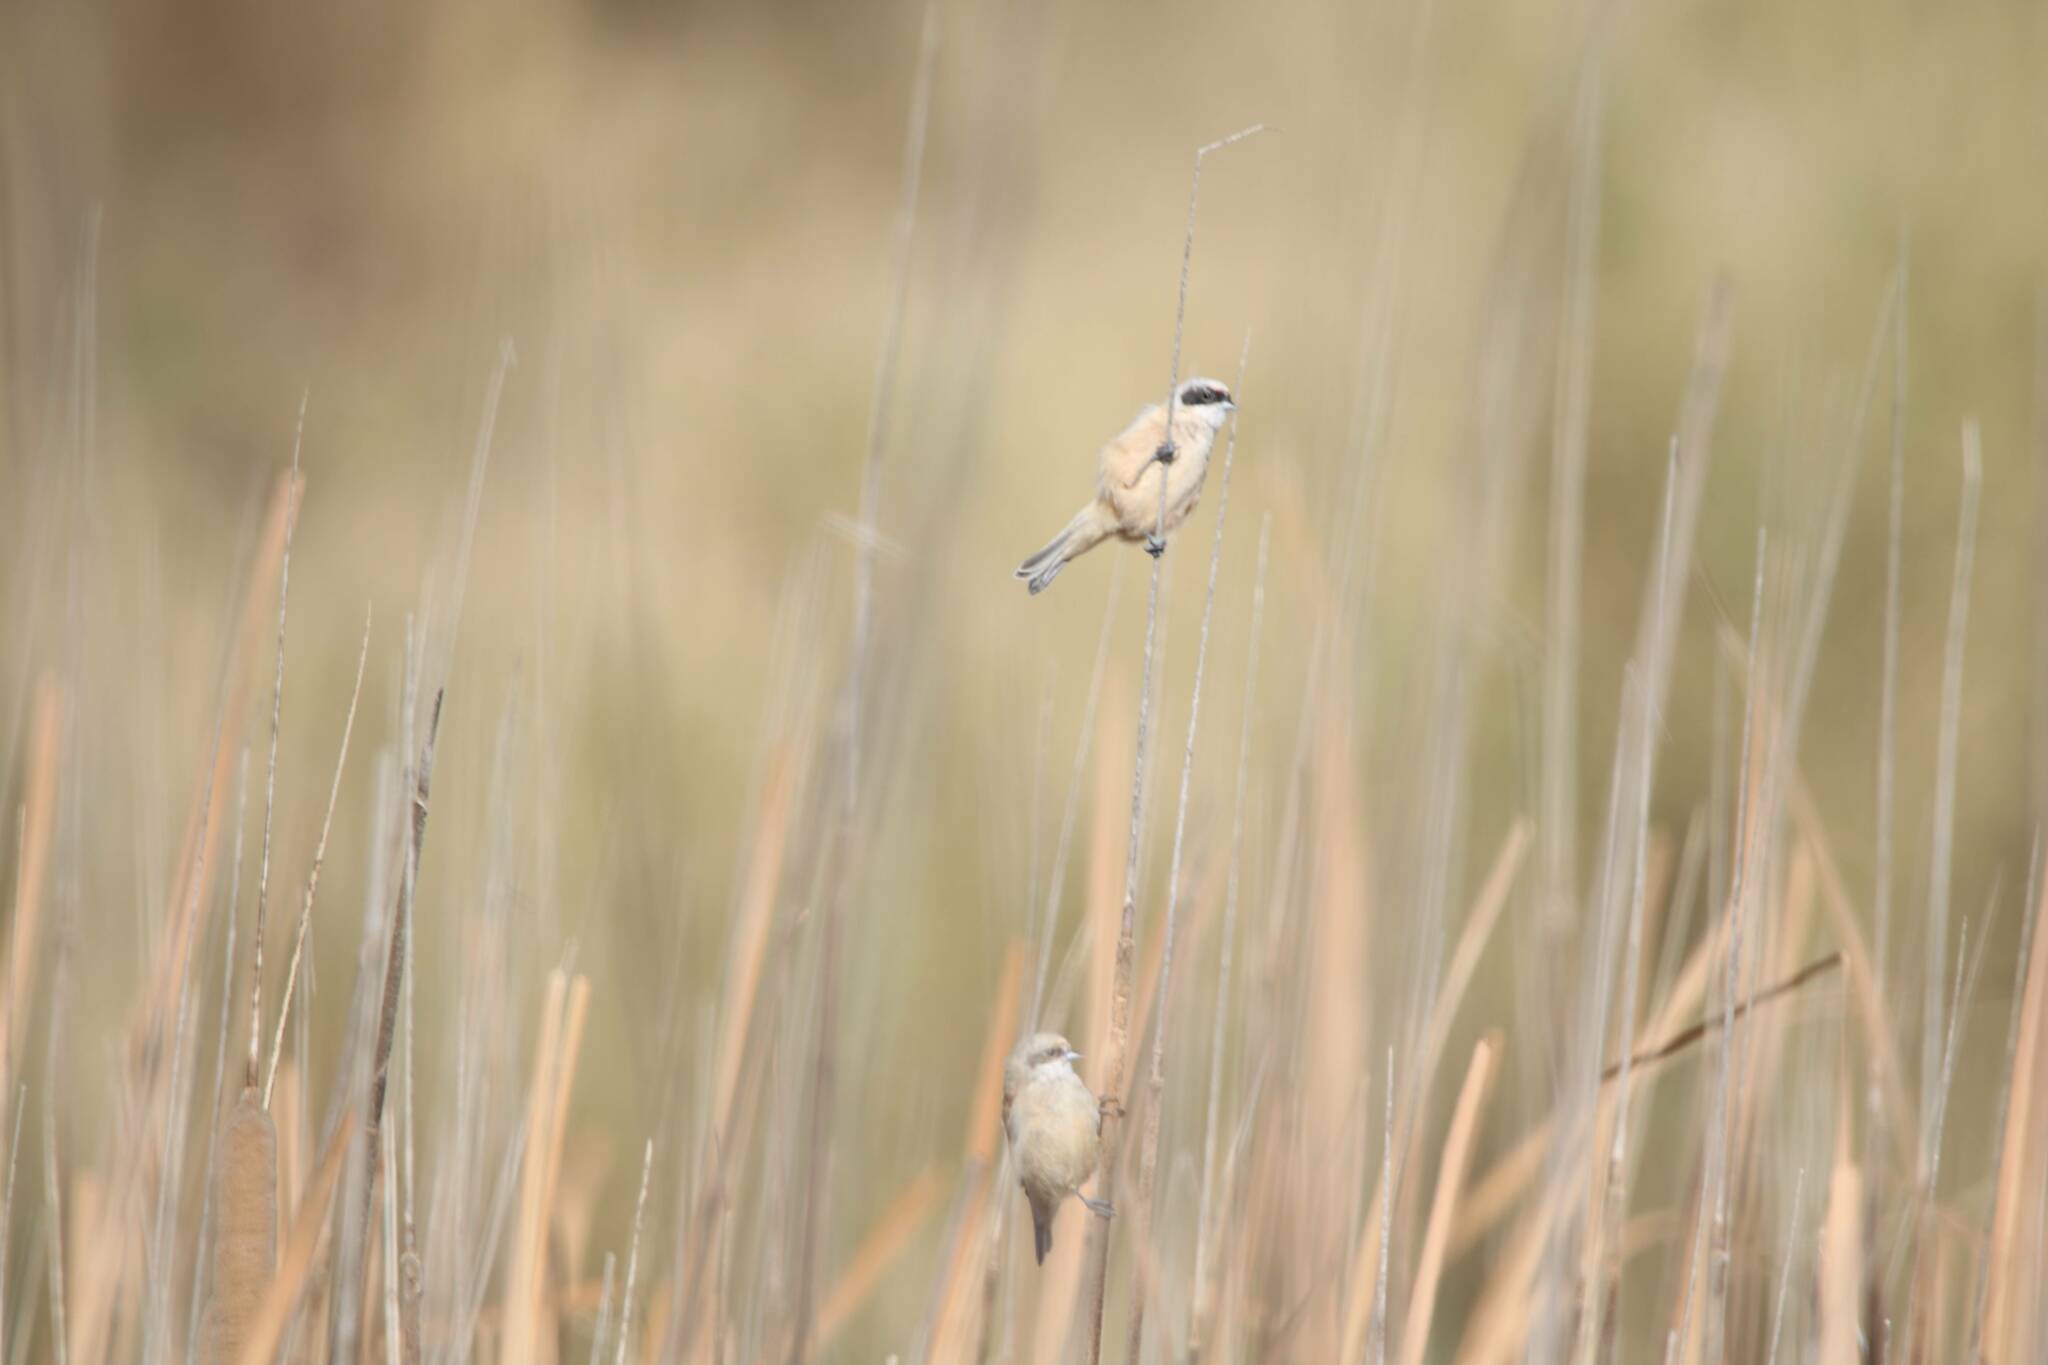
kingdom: Animalia
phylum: Chordata
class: Aves
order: Passeriformes
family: Remizidae
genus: Remiz
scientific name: Remiz pendulinus
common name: Eurasian penduline tit
